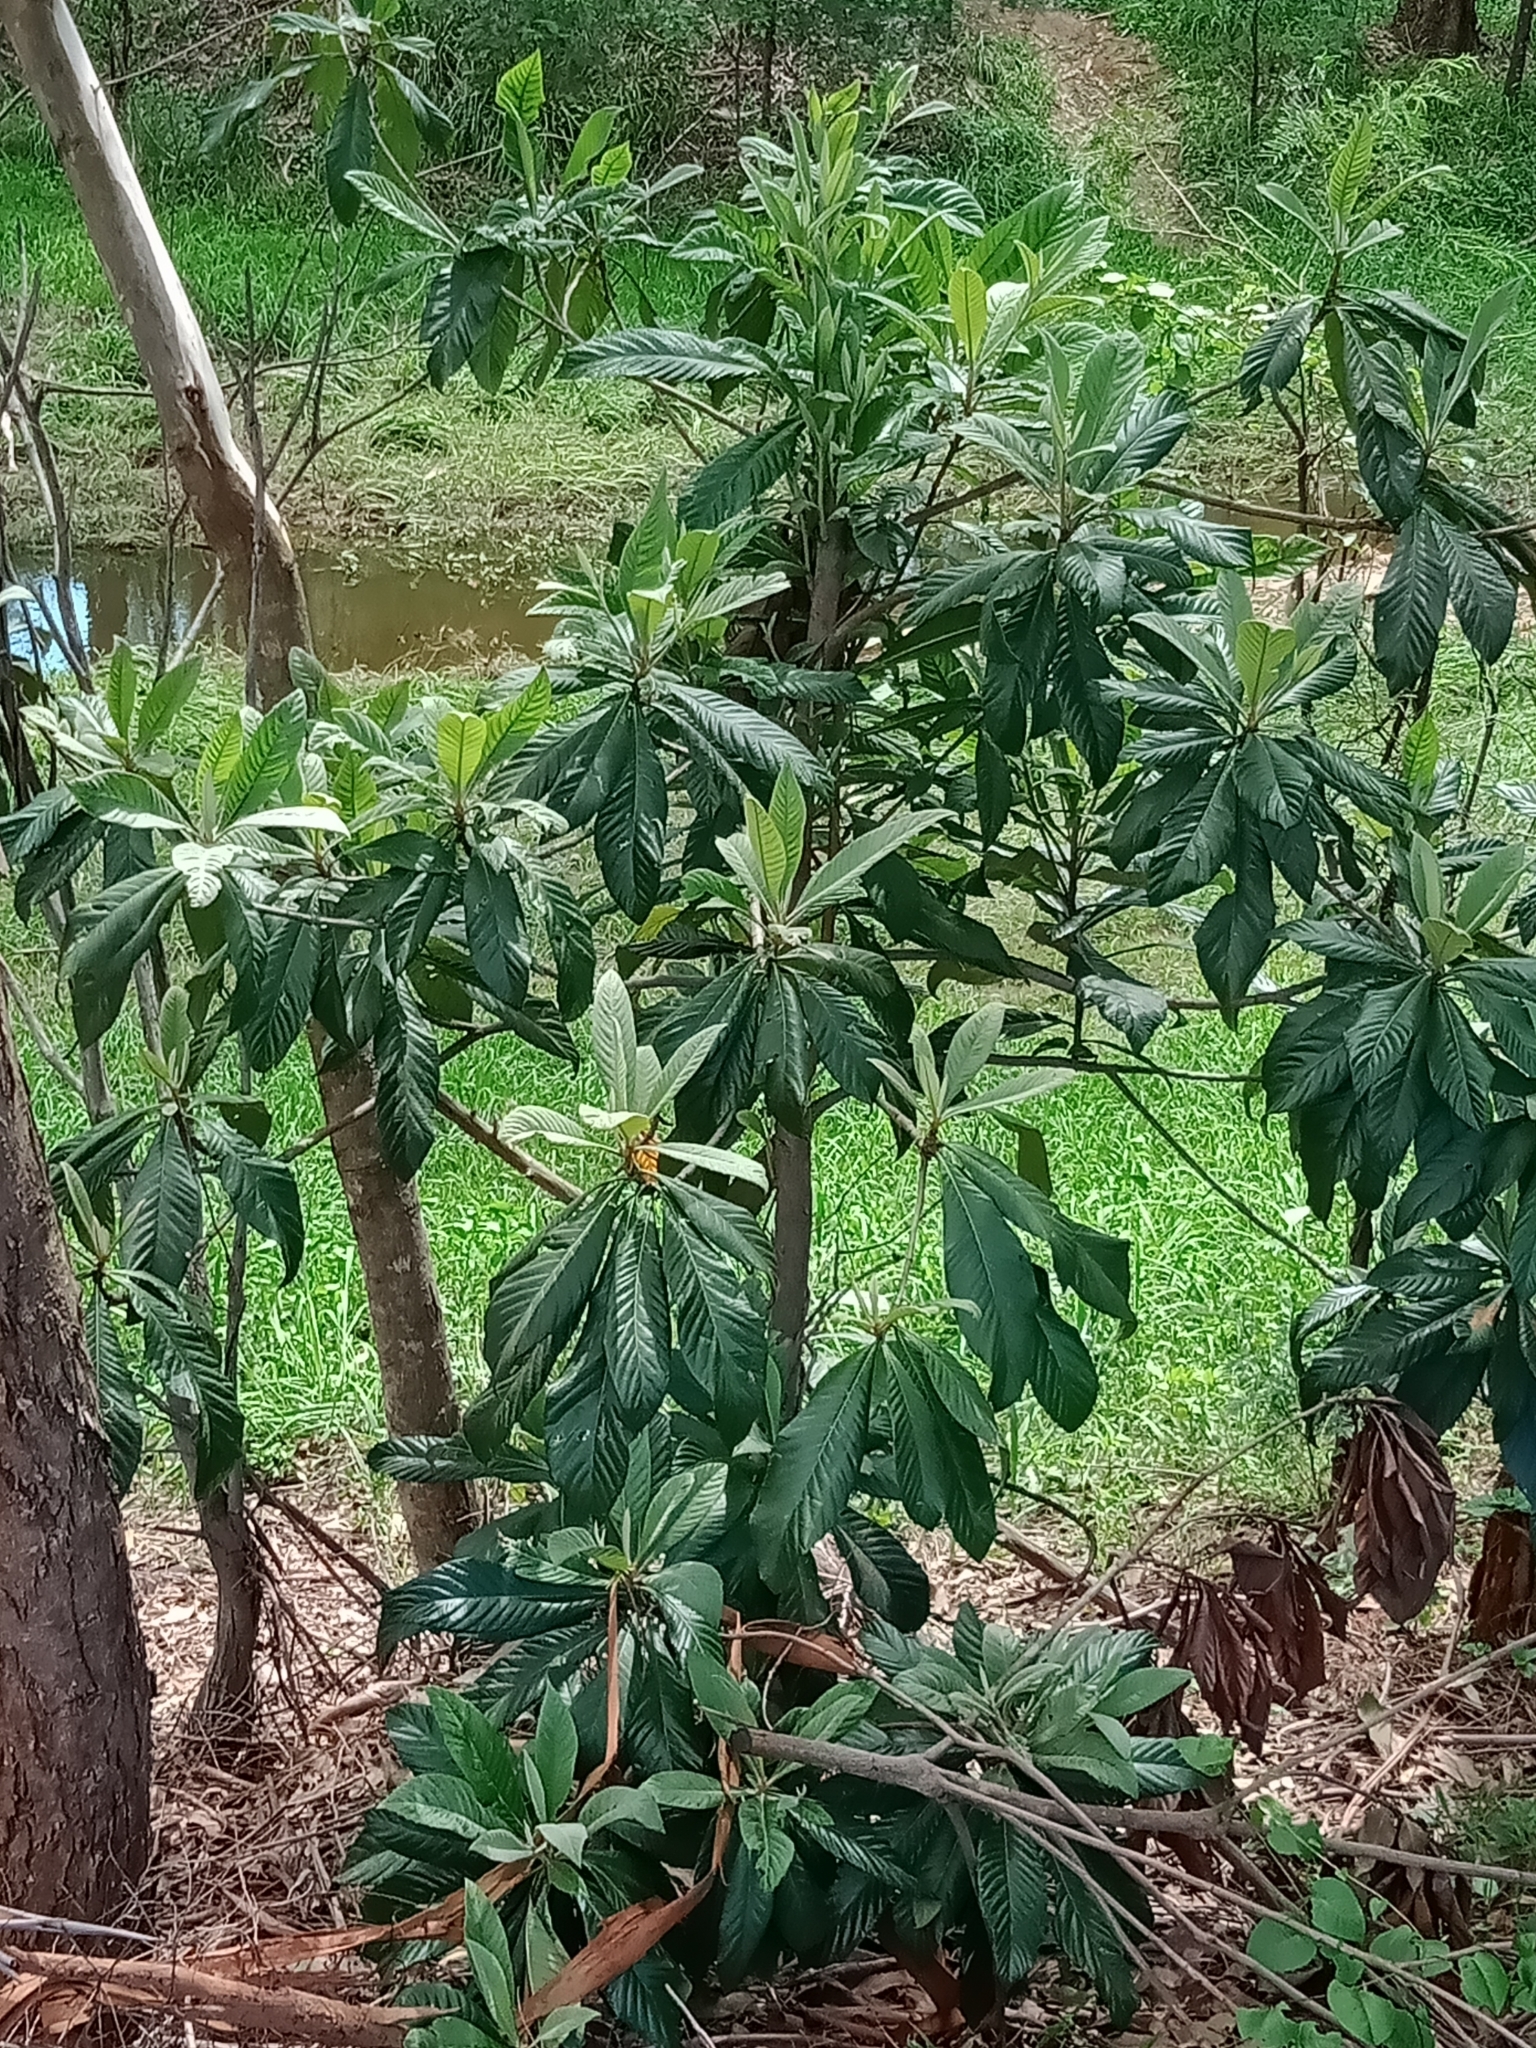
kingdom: Plantae
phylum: Tracheophyta
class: Magnoliopsida
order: Rosales
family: Rosaceae
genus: Rhaphiolepis
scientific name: Rhaphiolepis bibas
